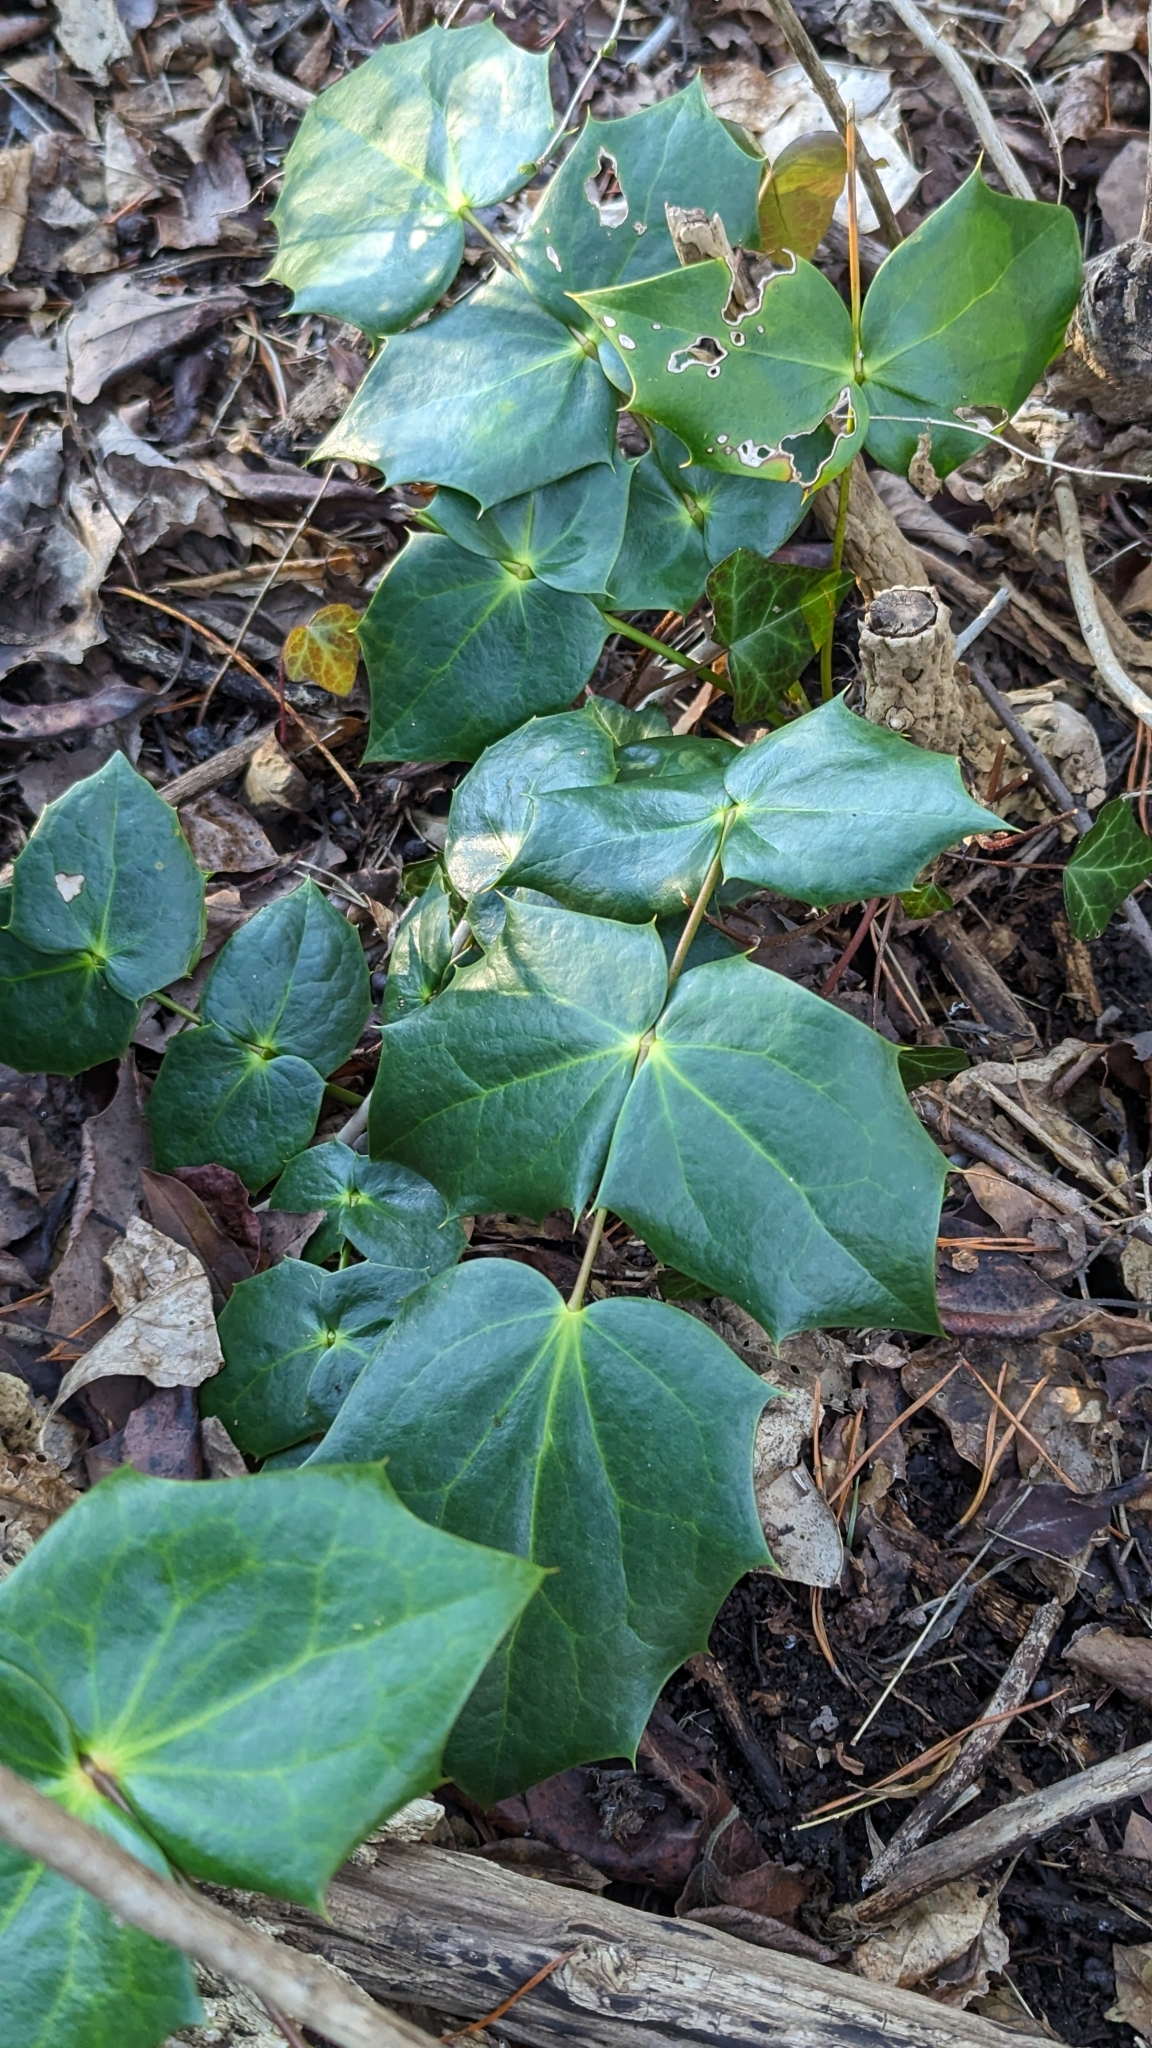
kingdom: Plantae
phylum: Tracheophyta
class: Magnoliopsida
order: Ranunculales
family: Berberidaceae
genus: Mahonia
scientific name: Mahonia bealei
